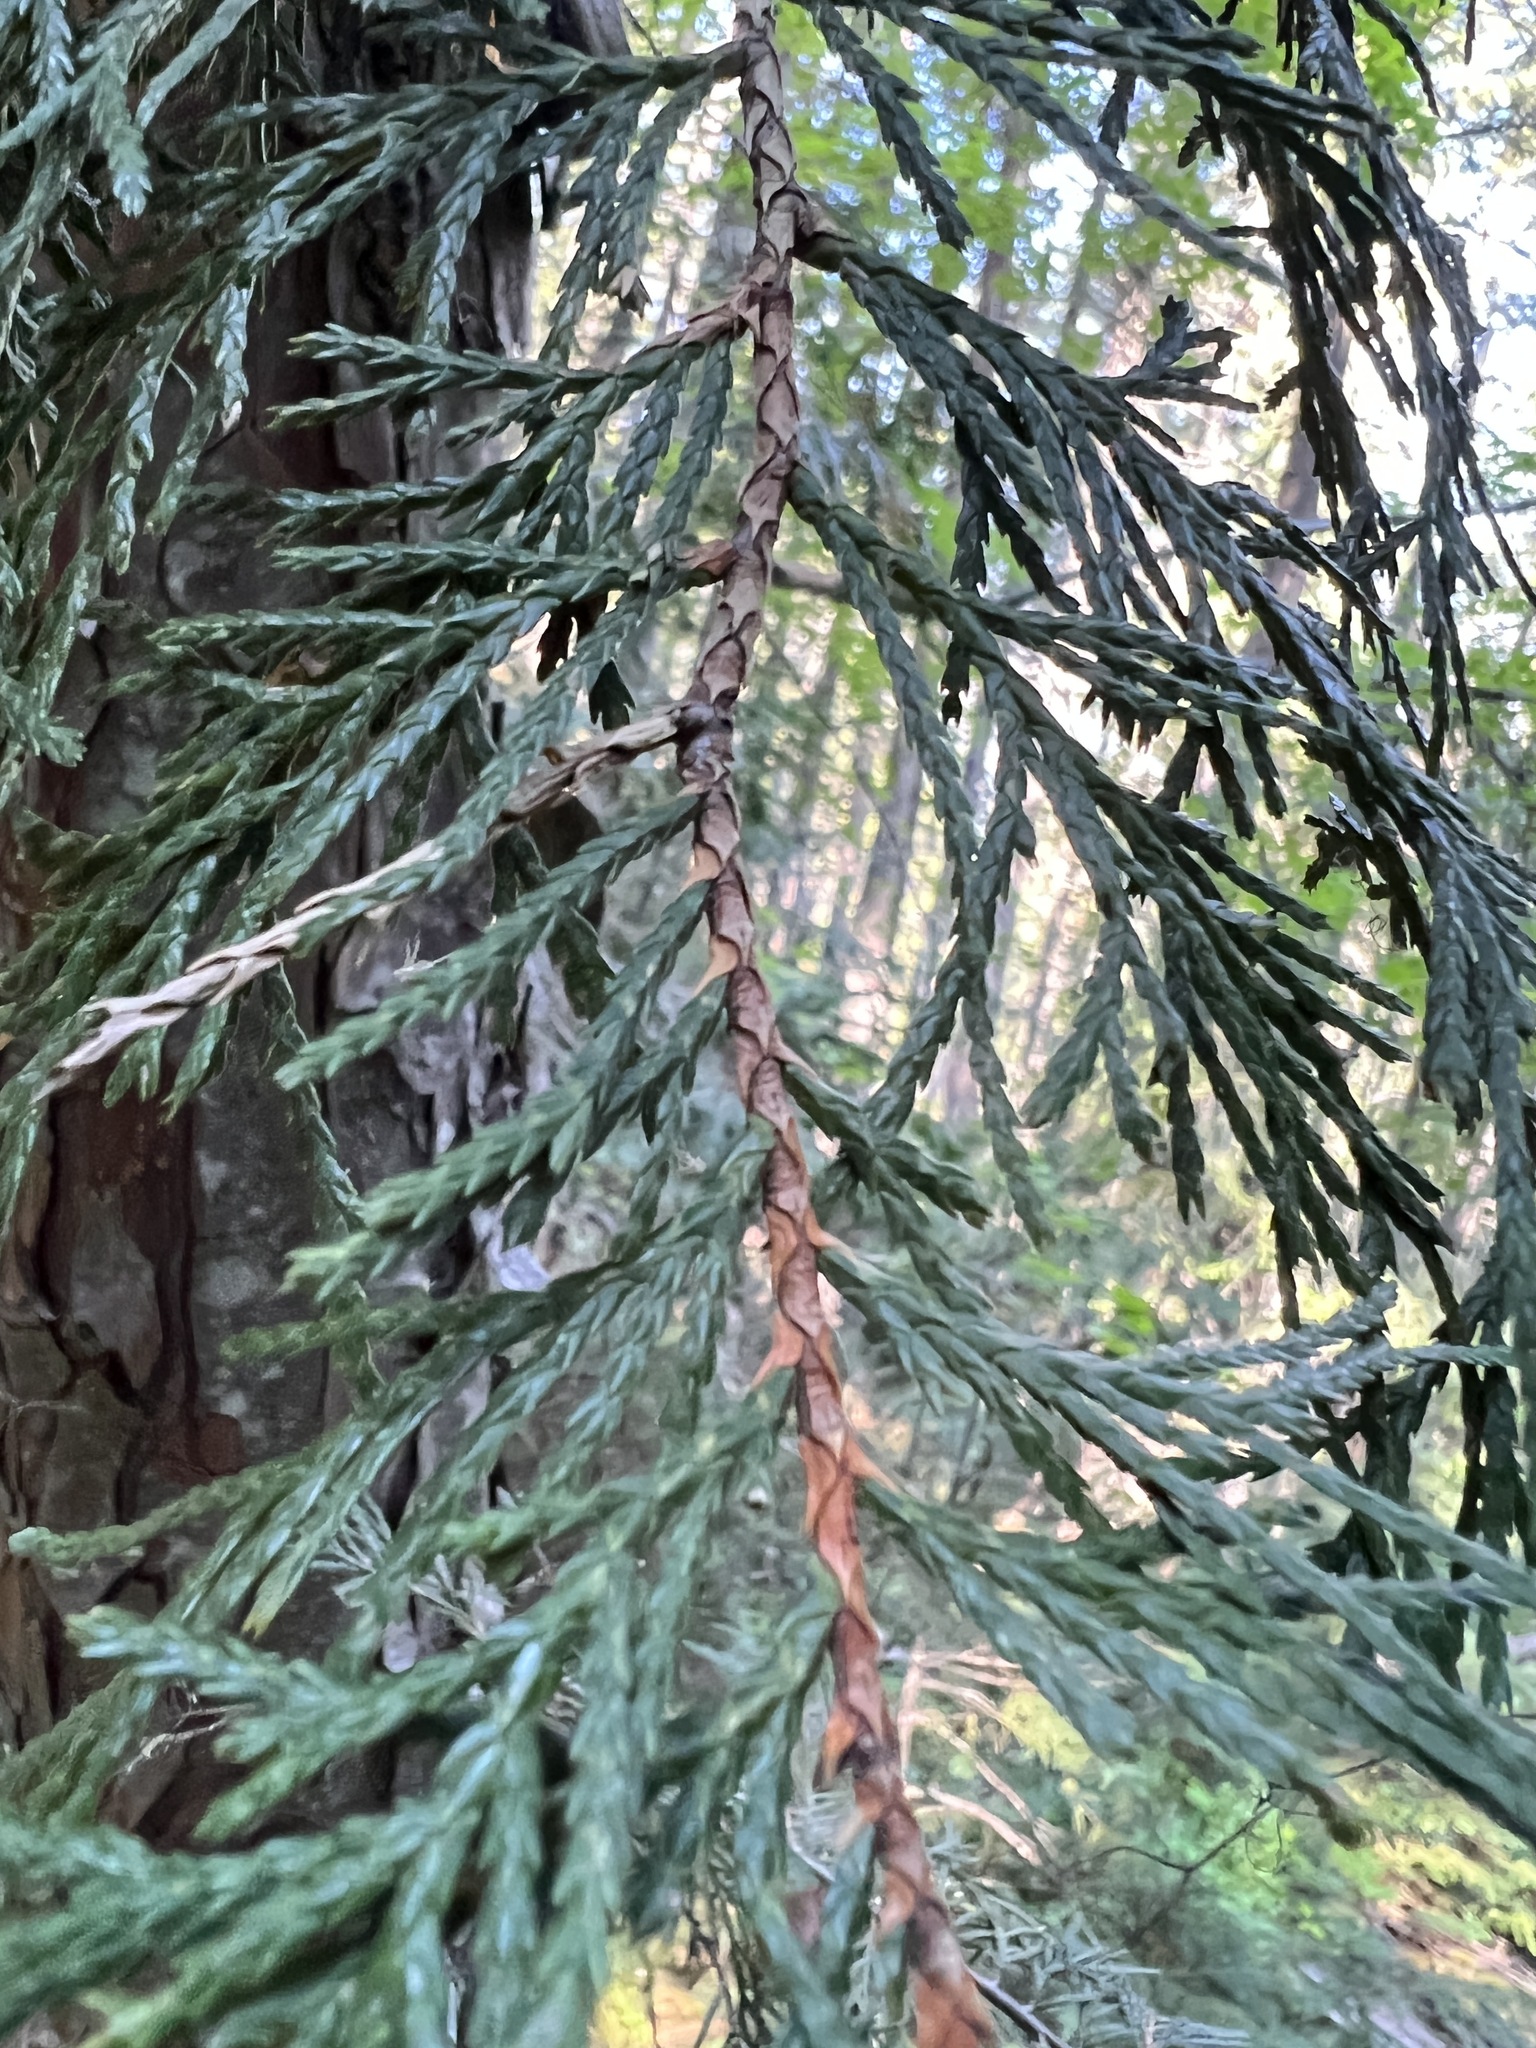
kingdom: Plantae
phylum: Tracheophyta
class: Pinopsida
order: Pinales
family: Cupressaceae
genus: Xanthocyparis
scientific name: Xanthocyparis nootkatensis
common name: Nootka cypress
